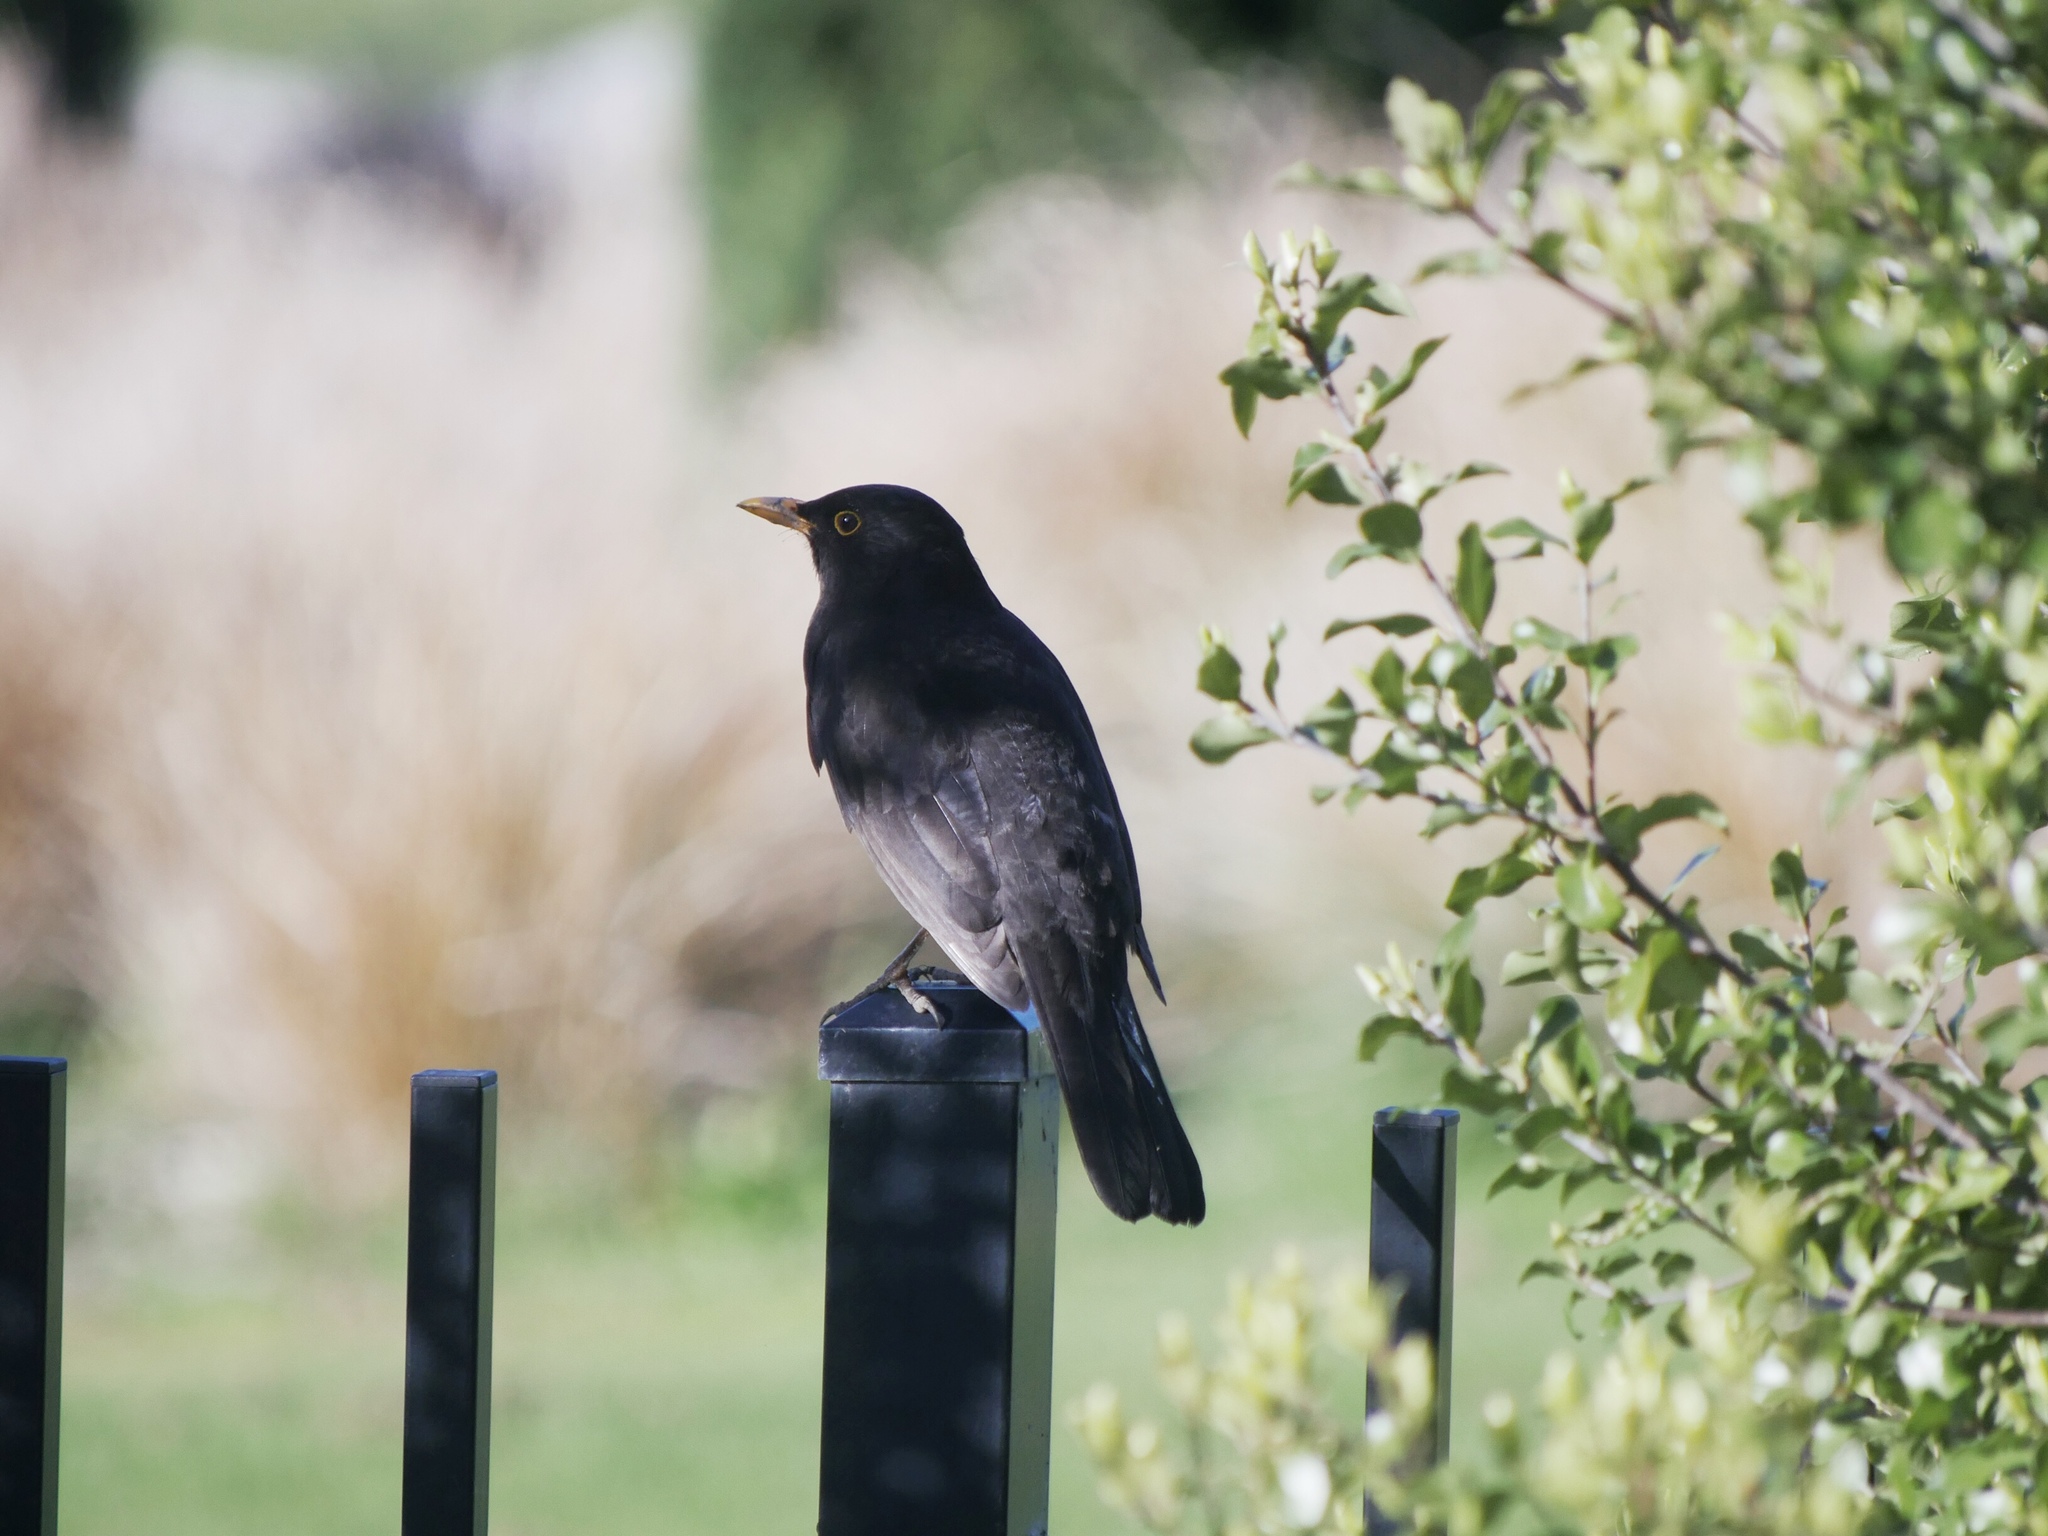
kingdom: Animalia
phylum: Chordata
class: Aves
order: Passeriformes
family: Turdidae
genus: Turdus
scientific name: Turdus merula
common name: Common blackbird
